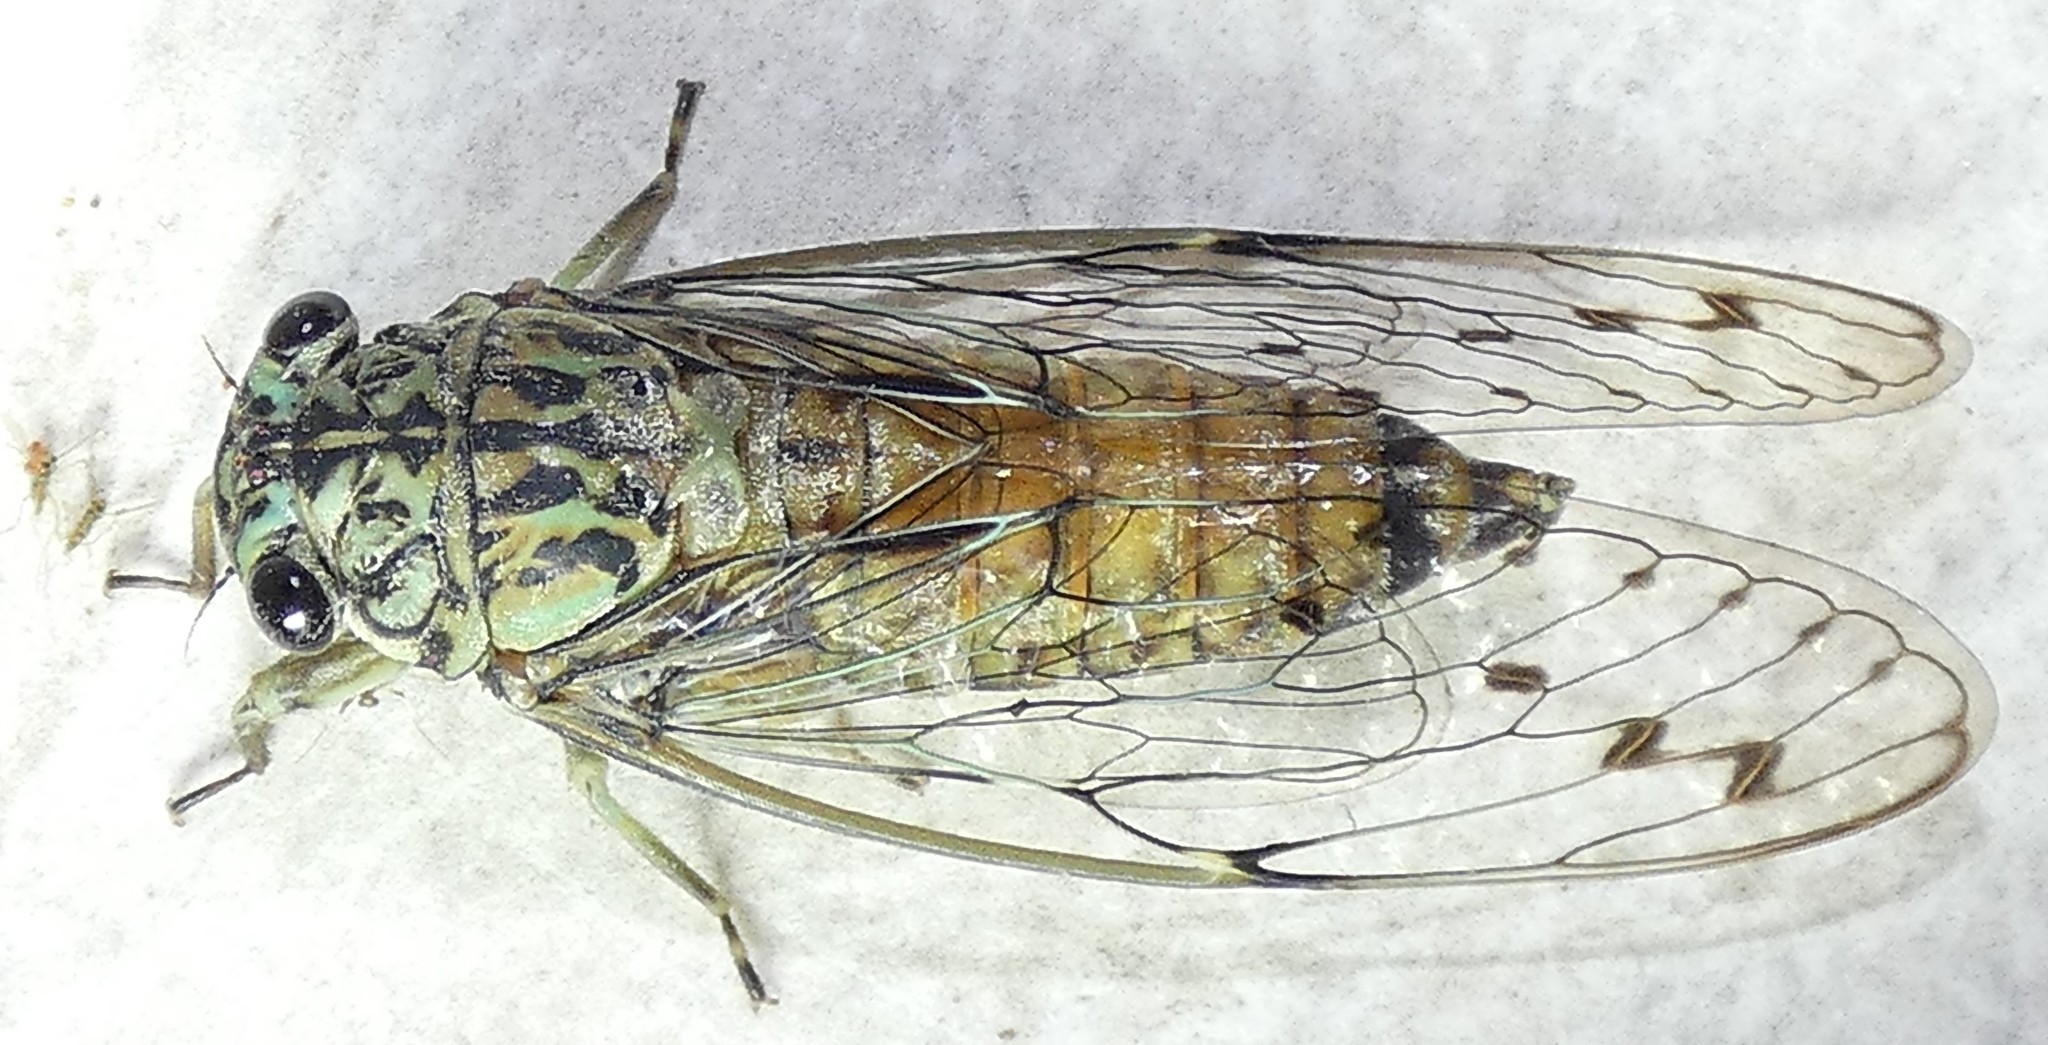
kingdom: Animalia
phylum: Arthropoda
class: Insecta
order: Hemiptera
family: Cicadidae
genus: Neocicada
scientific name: Neocicada hieroglyphica
